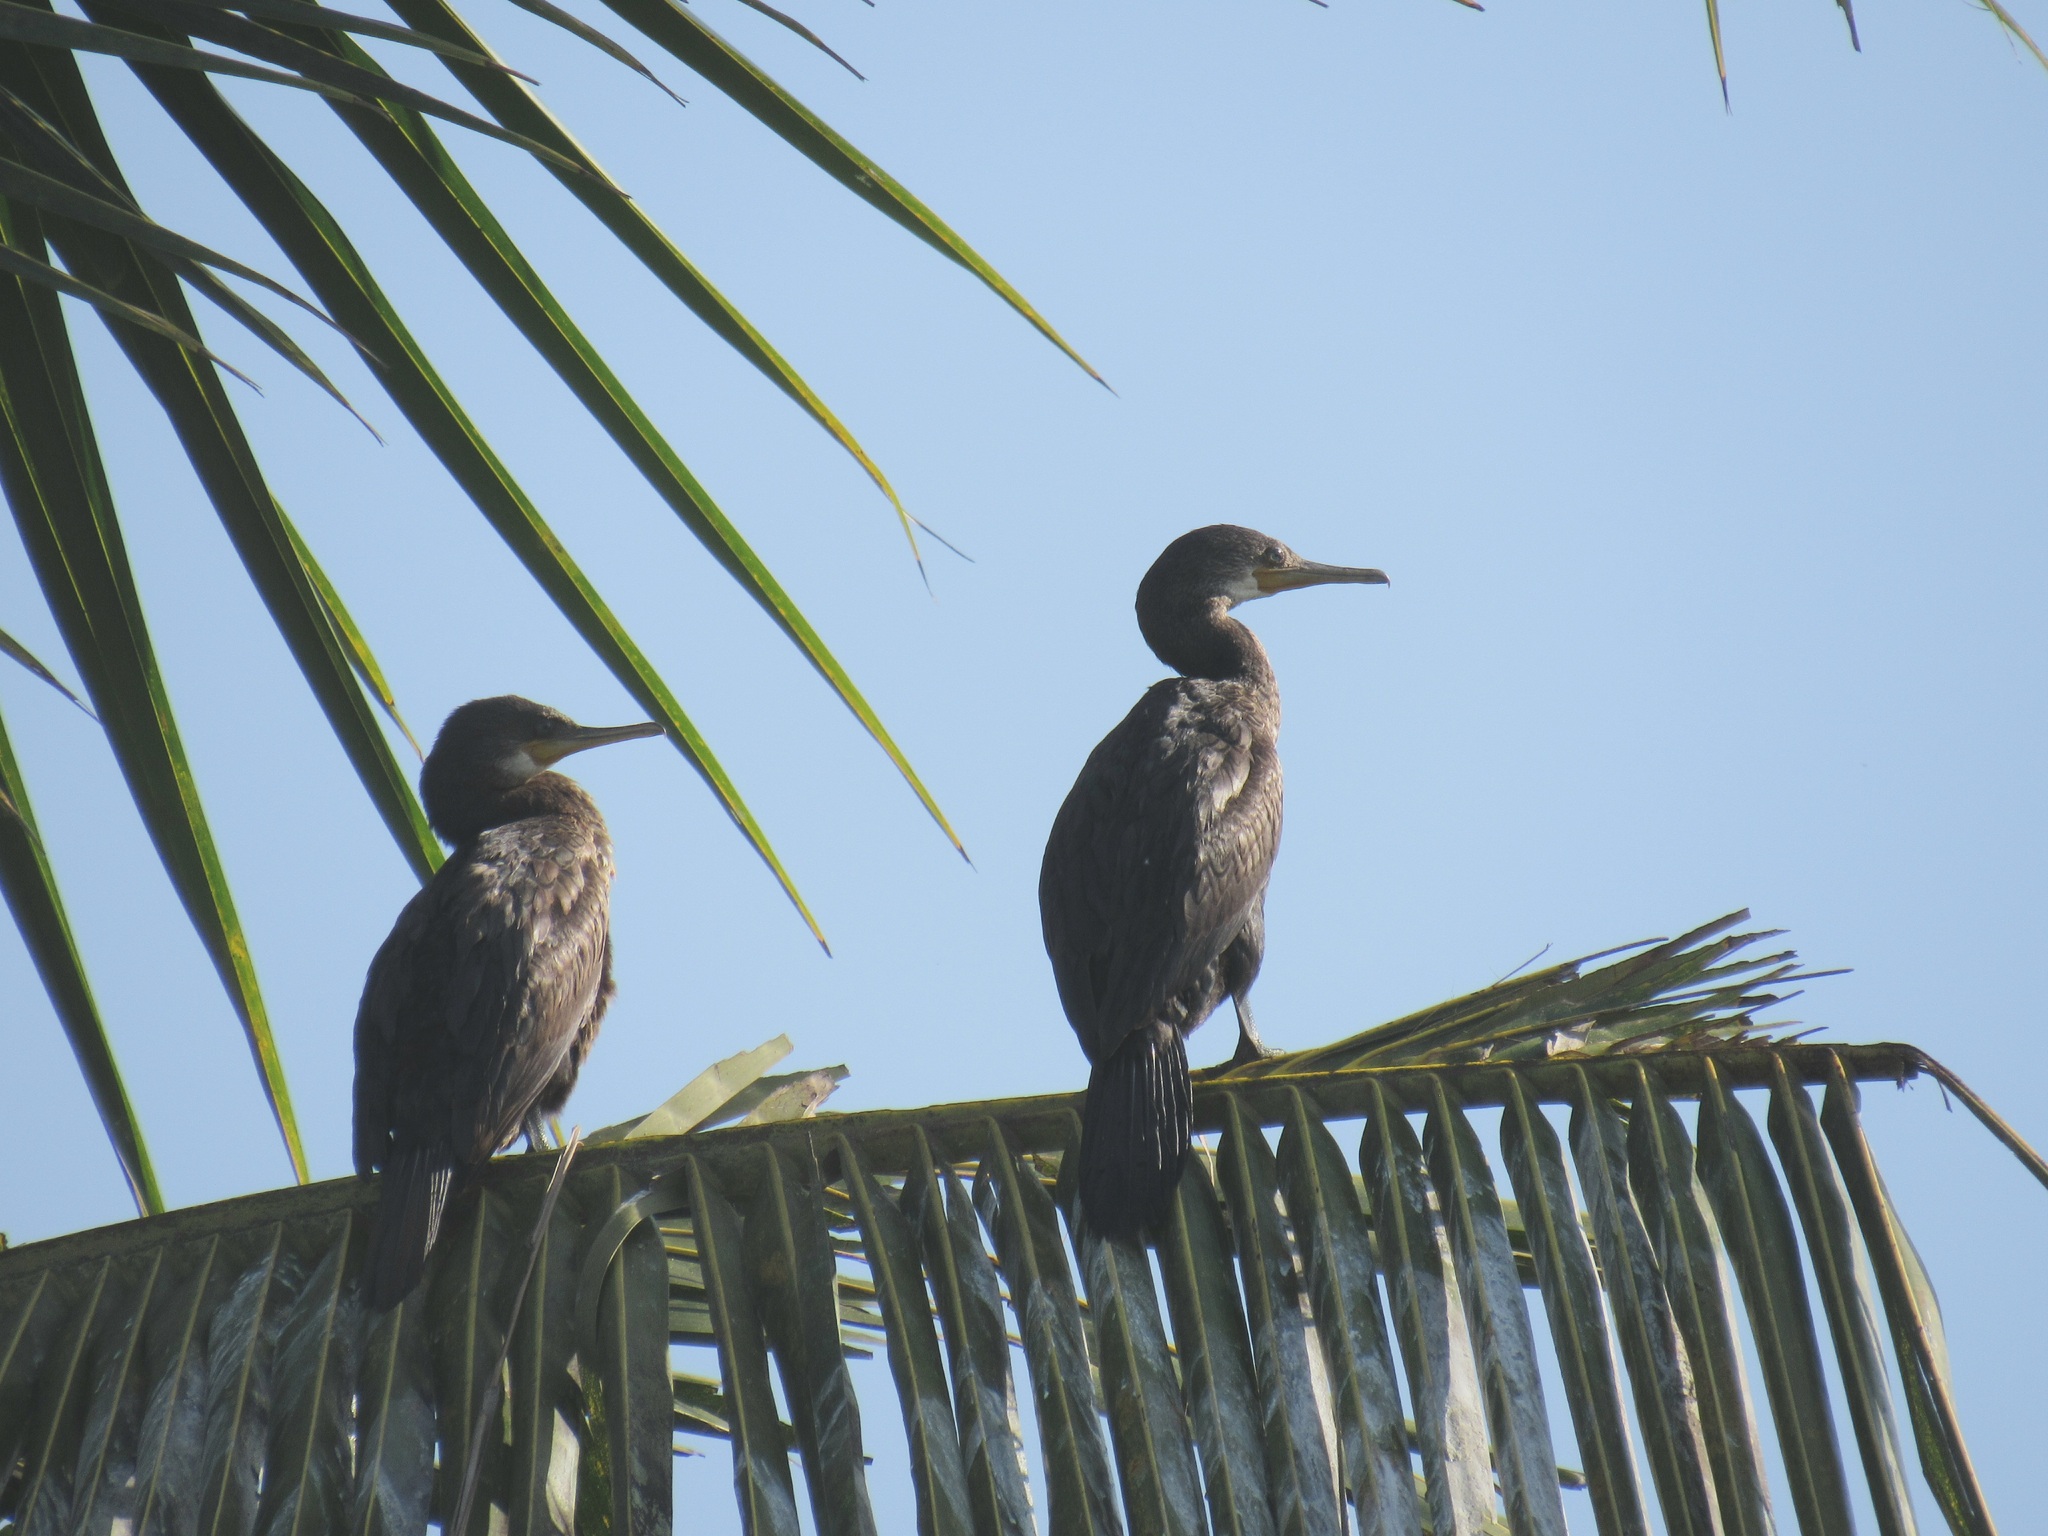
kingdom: Animalia
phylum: Chordata
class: Aves
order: Suliformes
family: Phalacrocoracidae
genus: Phalacrocorax
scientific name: Phalacrocorax fuscicollis
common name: Indian cormorant
